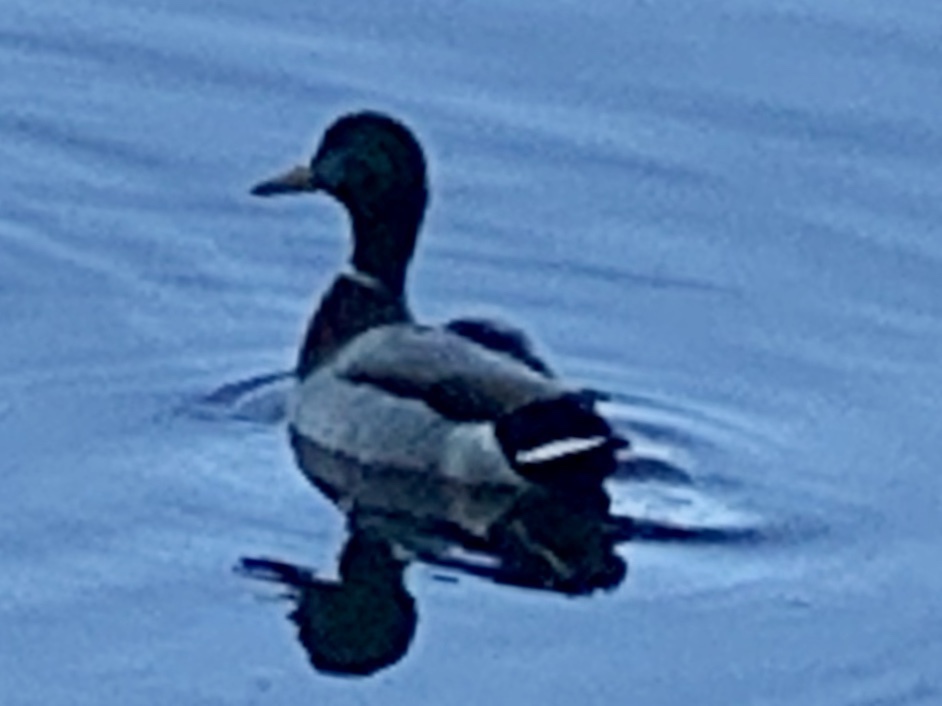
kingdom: Animalia
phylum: Chordata
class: Aves
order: Anseriformes
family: Anatidae
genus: Anas
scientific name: Anas platyrhynchos
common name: Mallard
